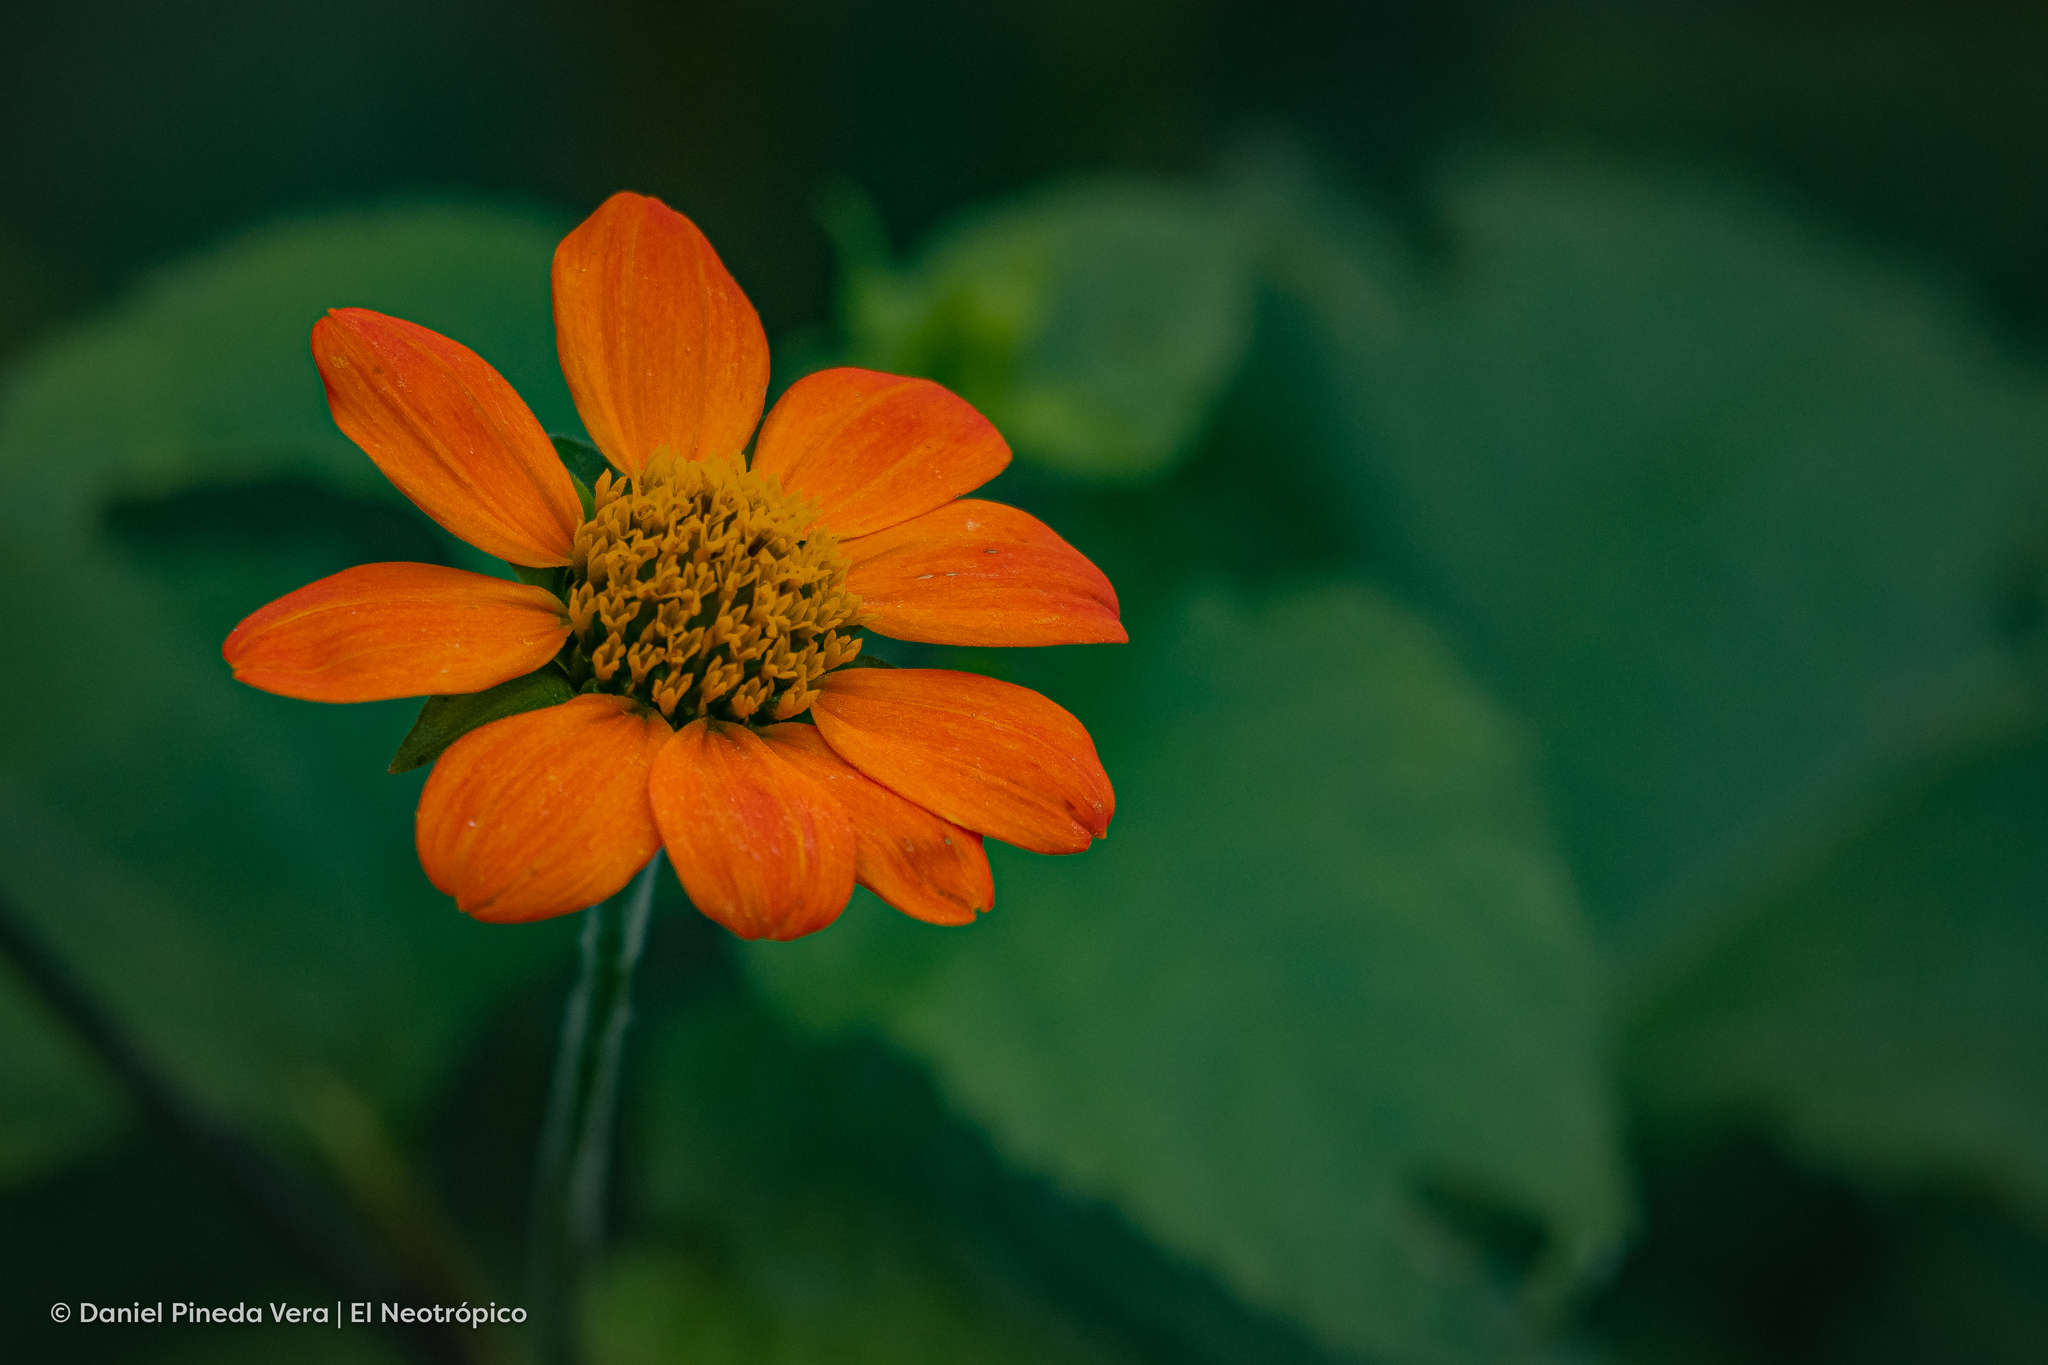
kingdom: Plantae
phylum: Tracheophyta
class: Magnoliopsida
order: Asterales
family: Asteraceae
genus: Tithonia
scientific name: Tithonia rotundifolia
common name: Sunflower
